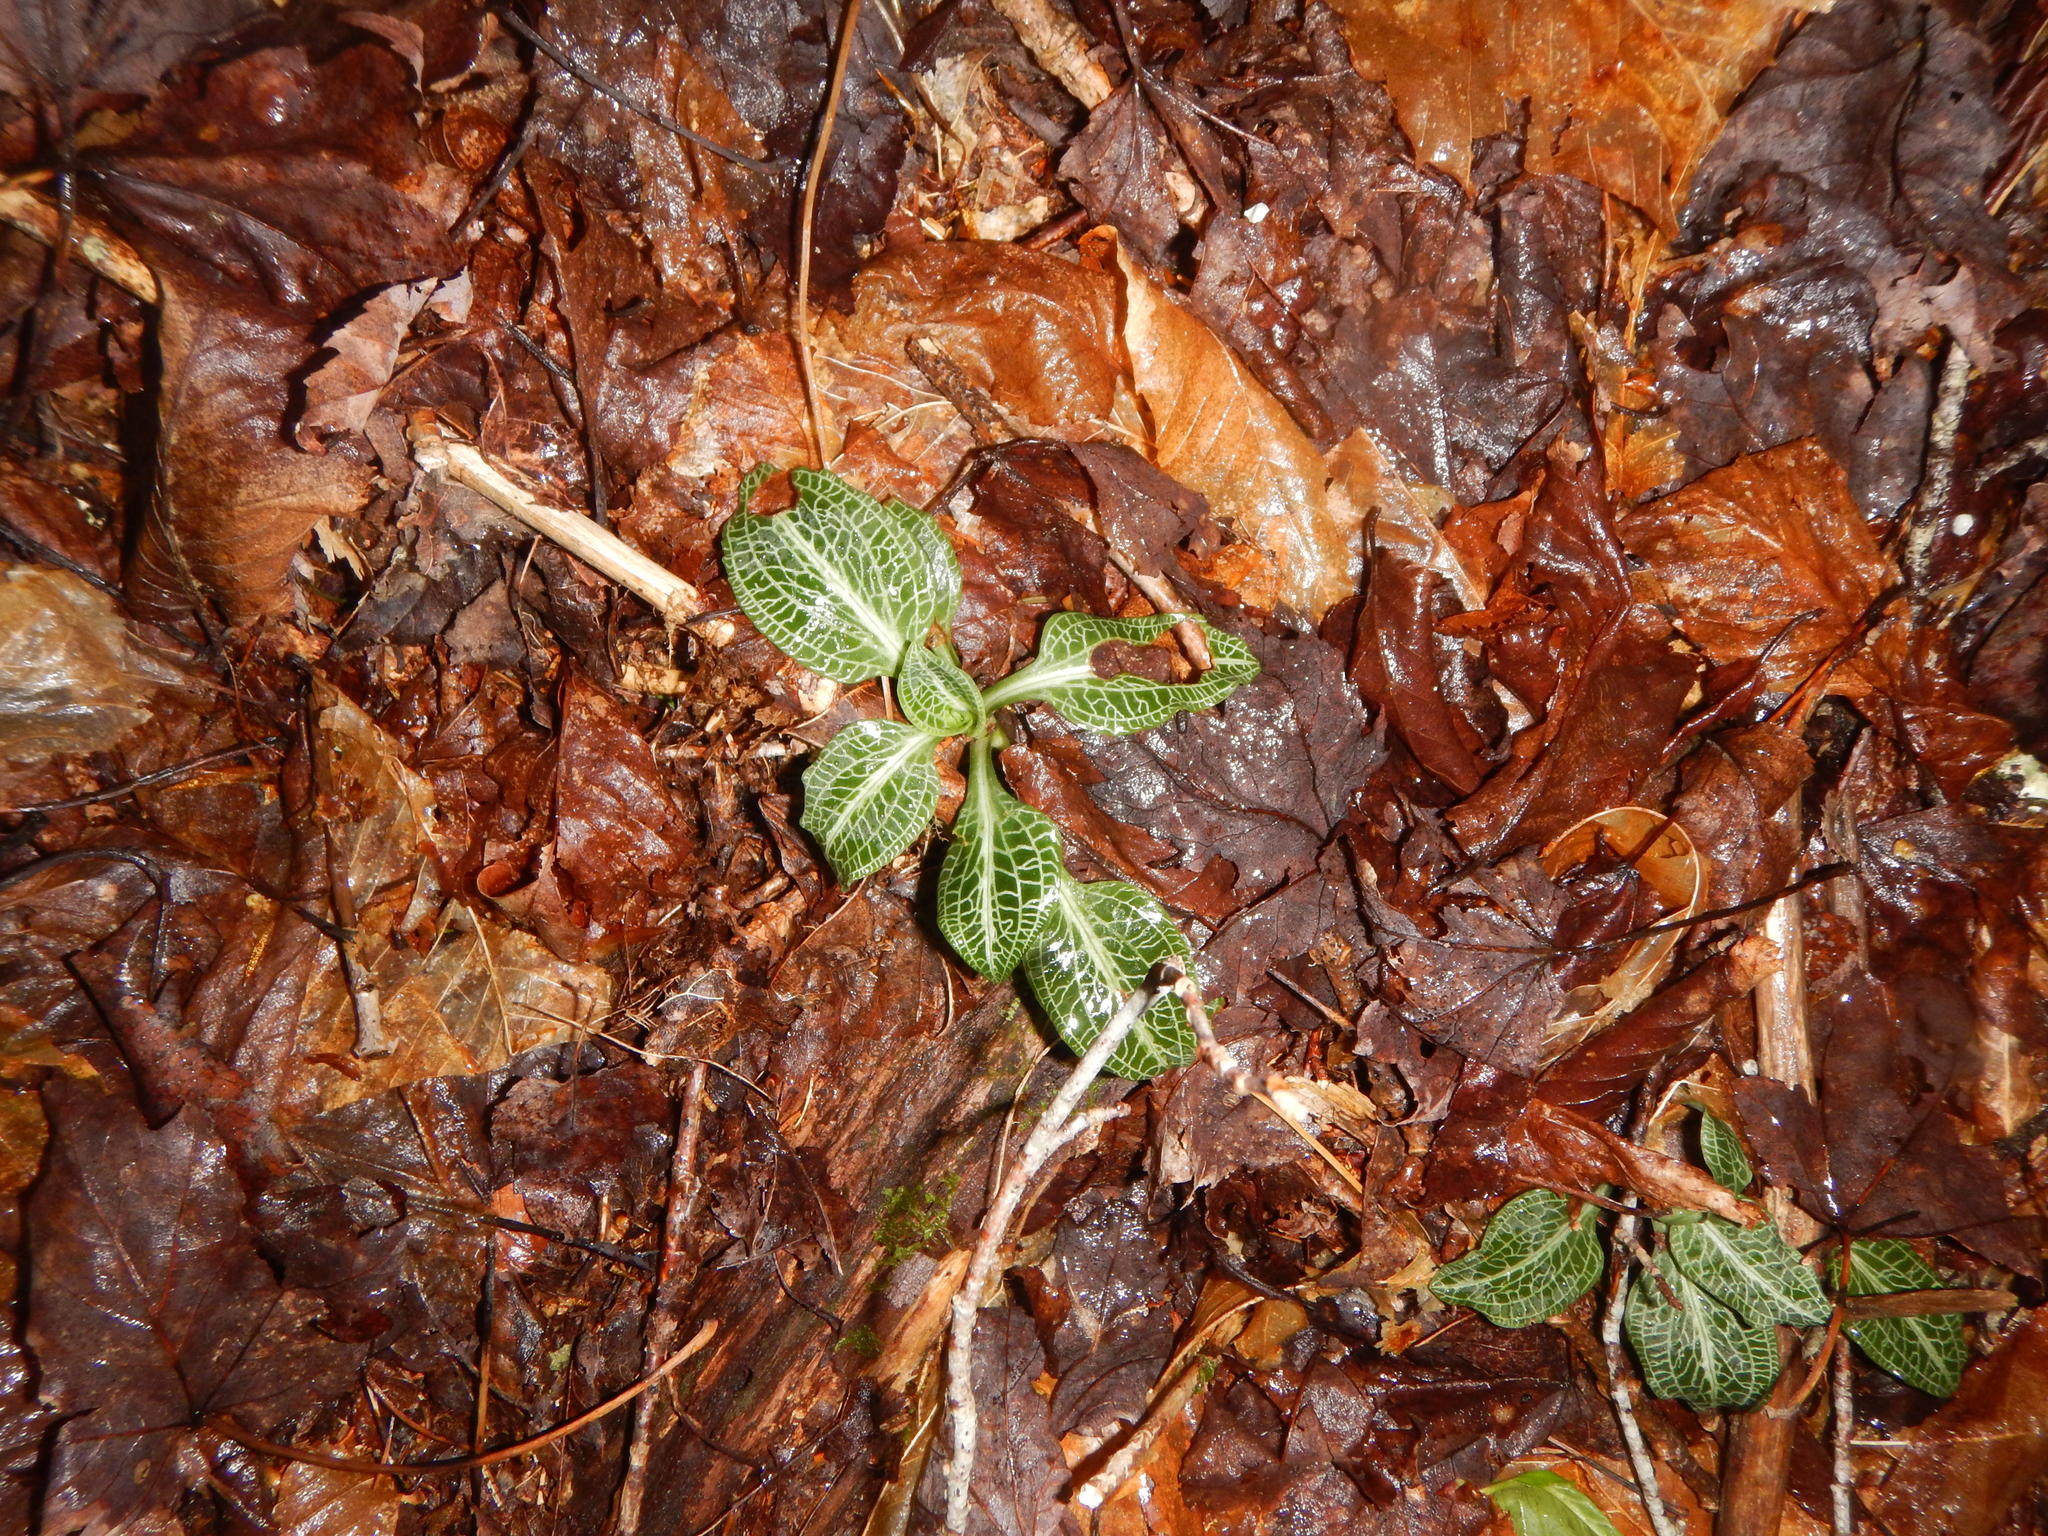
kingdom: Plantae
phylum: Tracheophyta
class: Liliopsida
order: Asparagales
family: Orchidaceae
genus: Goodyera
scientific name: Goodyera pubescens
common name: Downy rattlesnake-plantain
